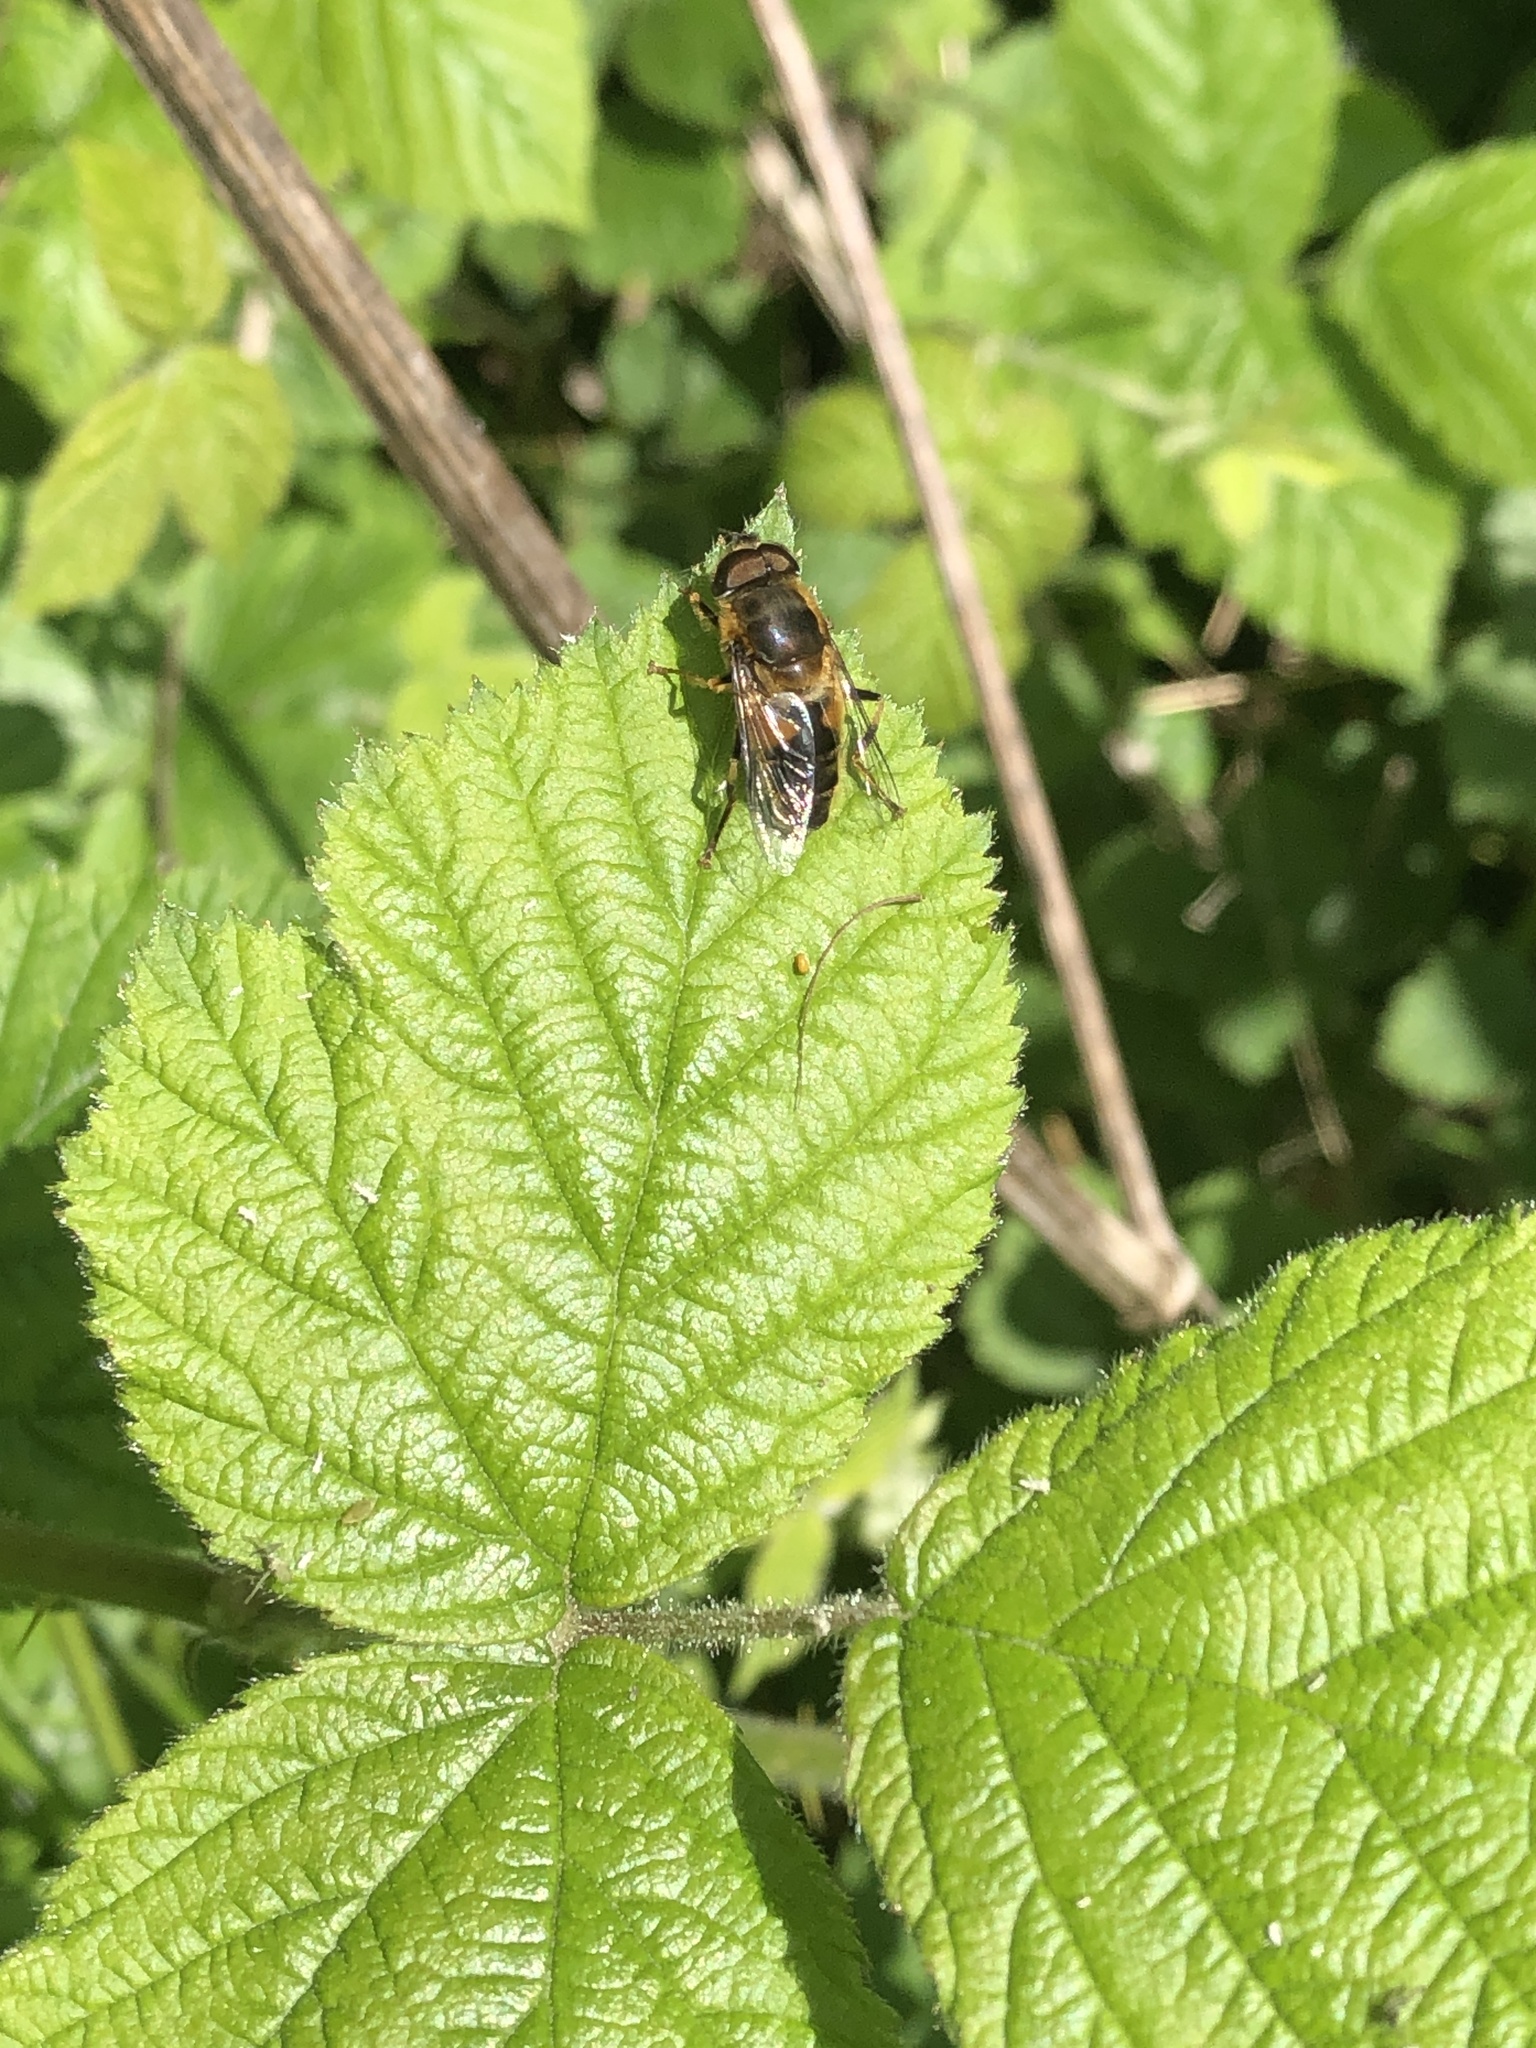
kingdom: Animalia
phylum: Arthropoda
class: Insecta
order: Diptera
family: Syrphidae
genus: Eristalis
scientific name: Eristalis pertinax
